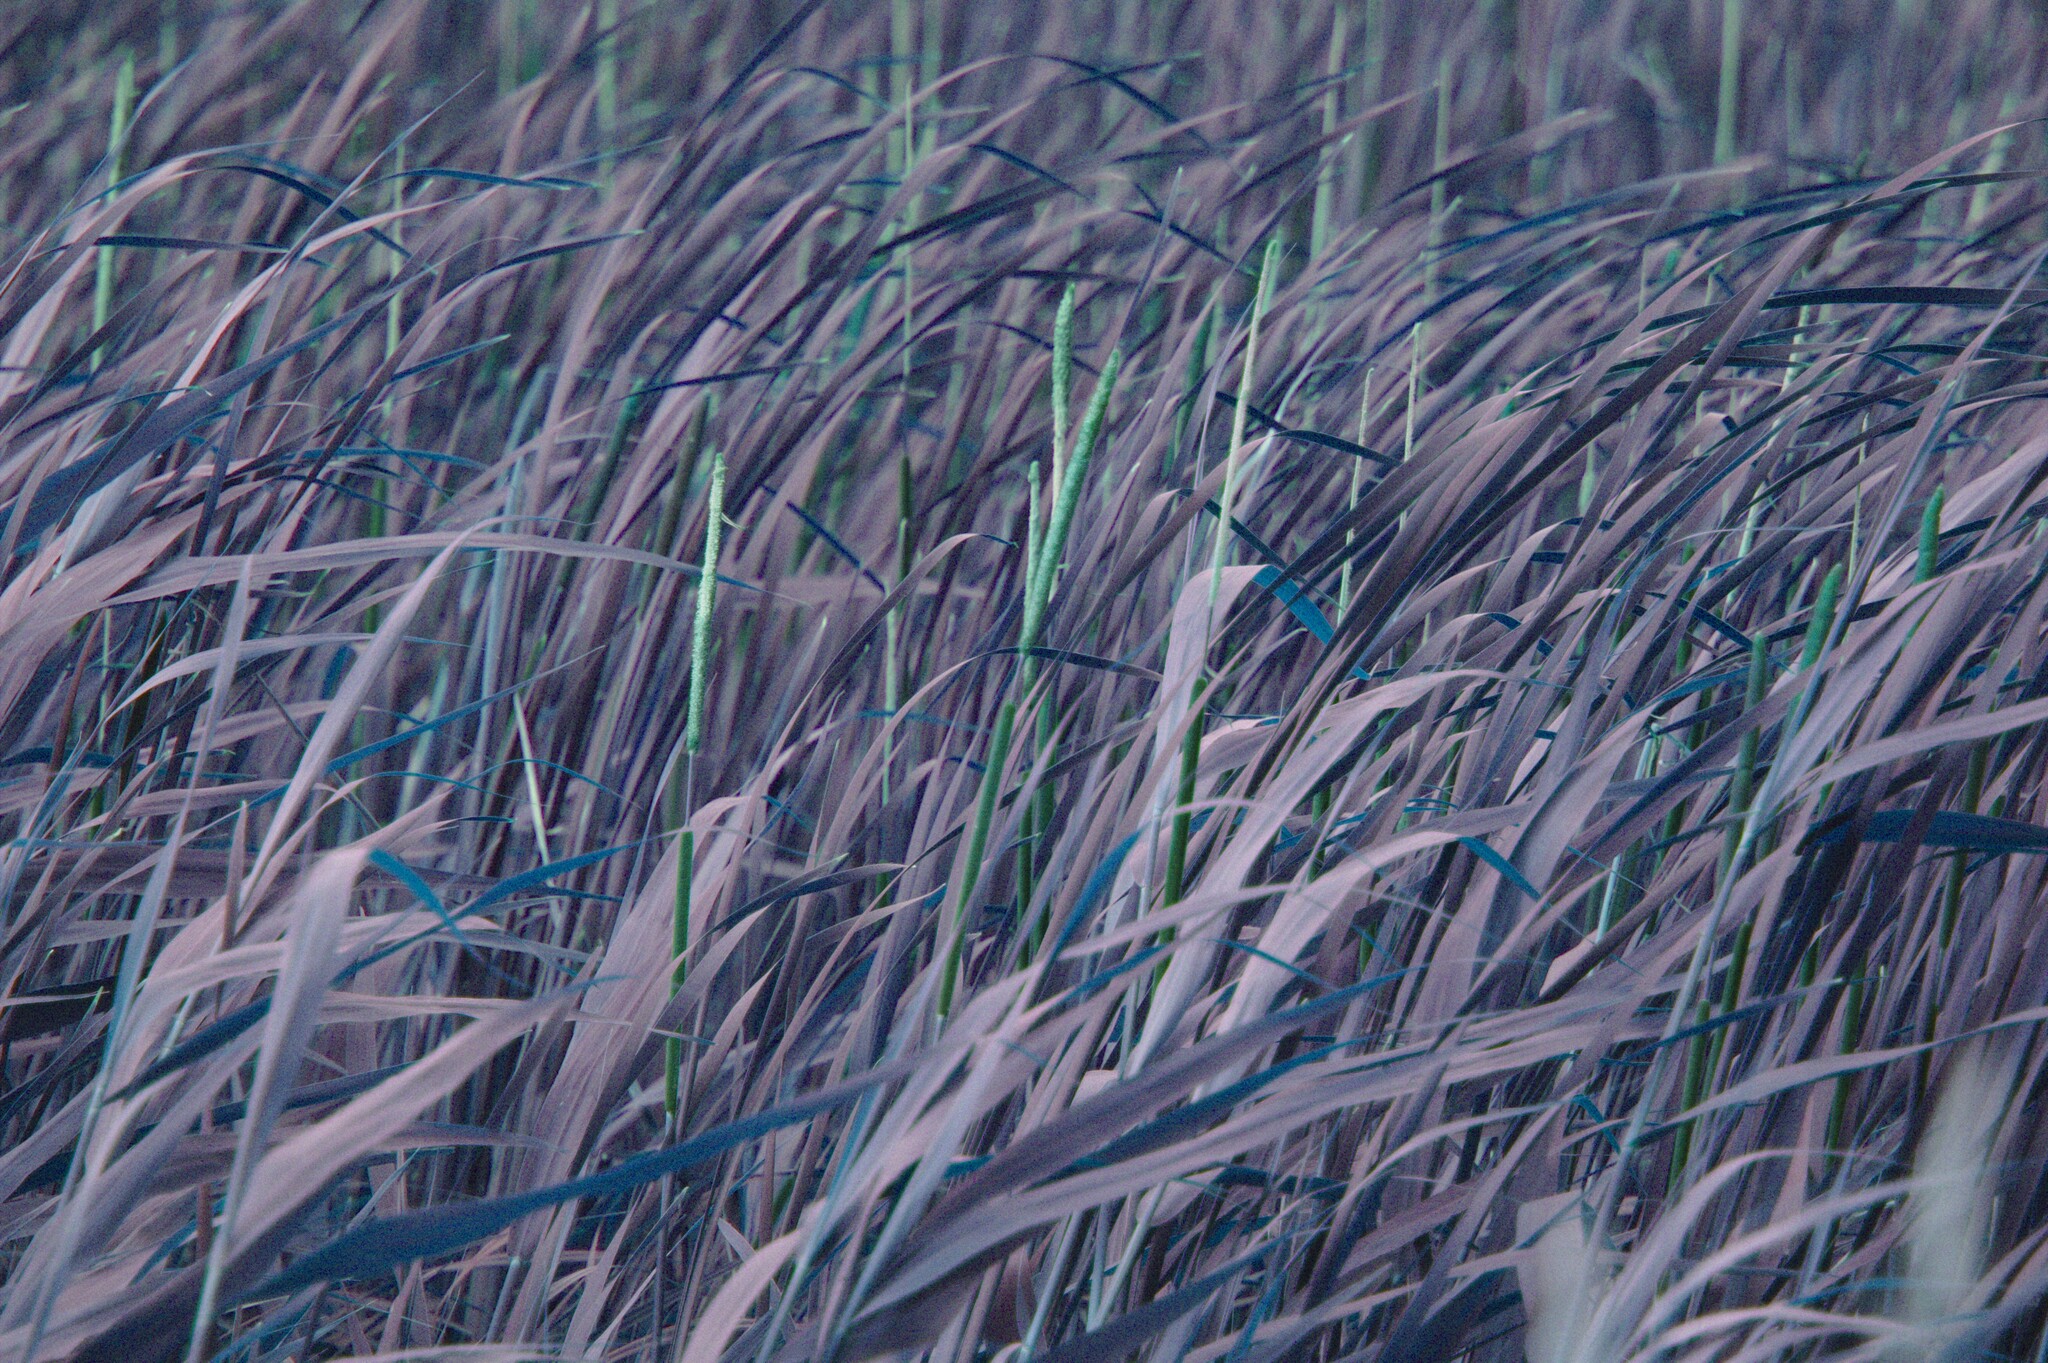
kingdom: Plantae
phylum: Tracheophyta
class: Liliopsida
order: Poales
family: Typhaceae
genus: Typha
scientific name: Typha angustifolia
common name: Lesser bulrush
